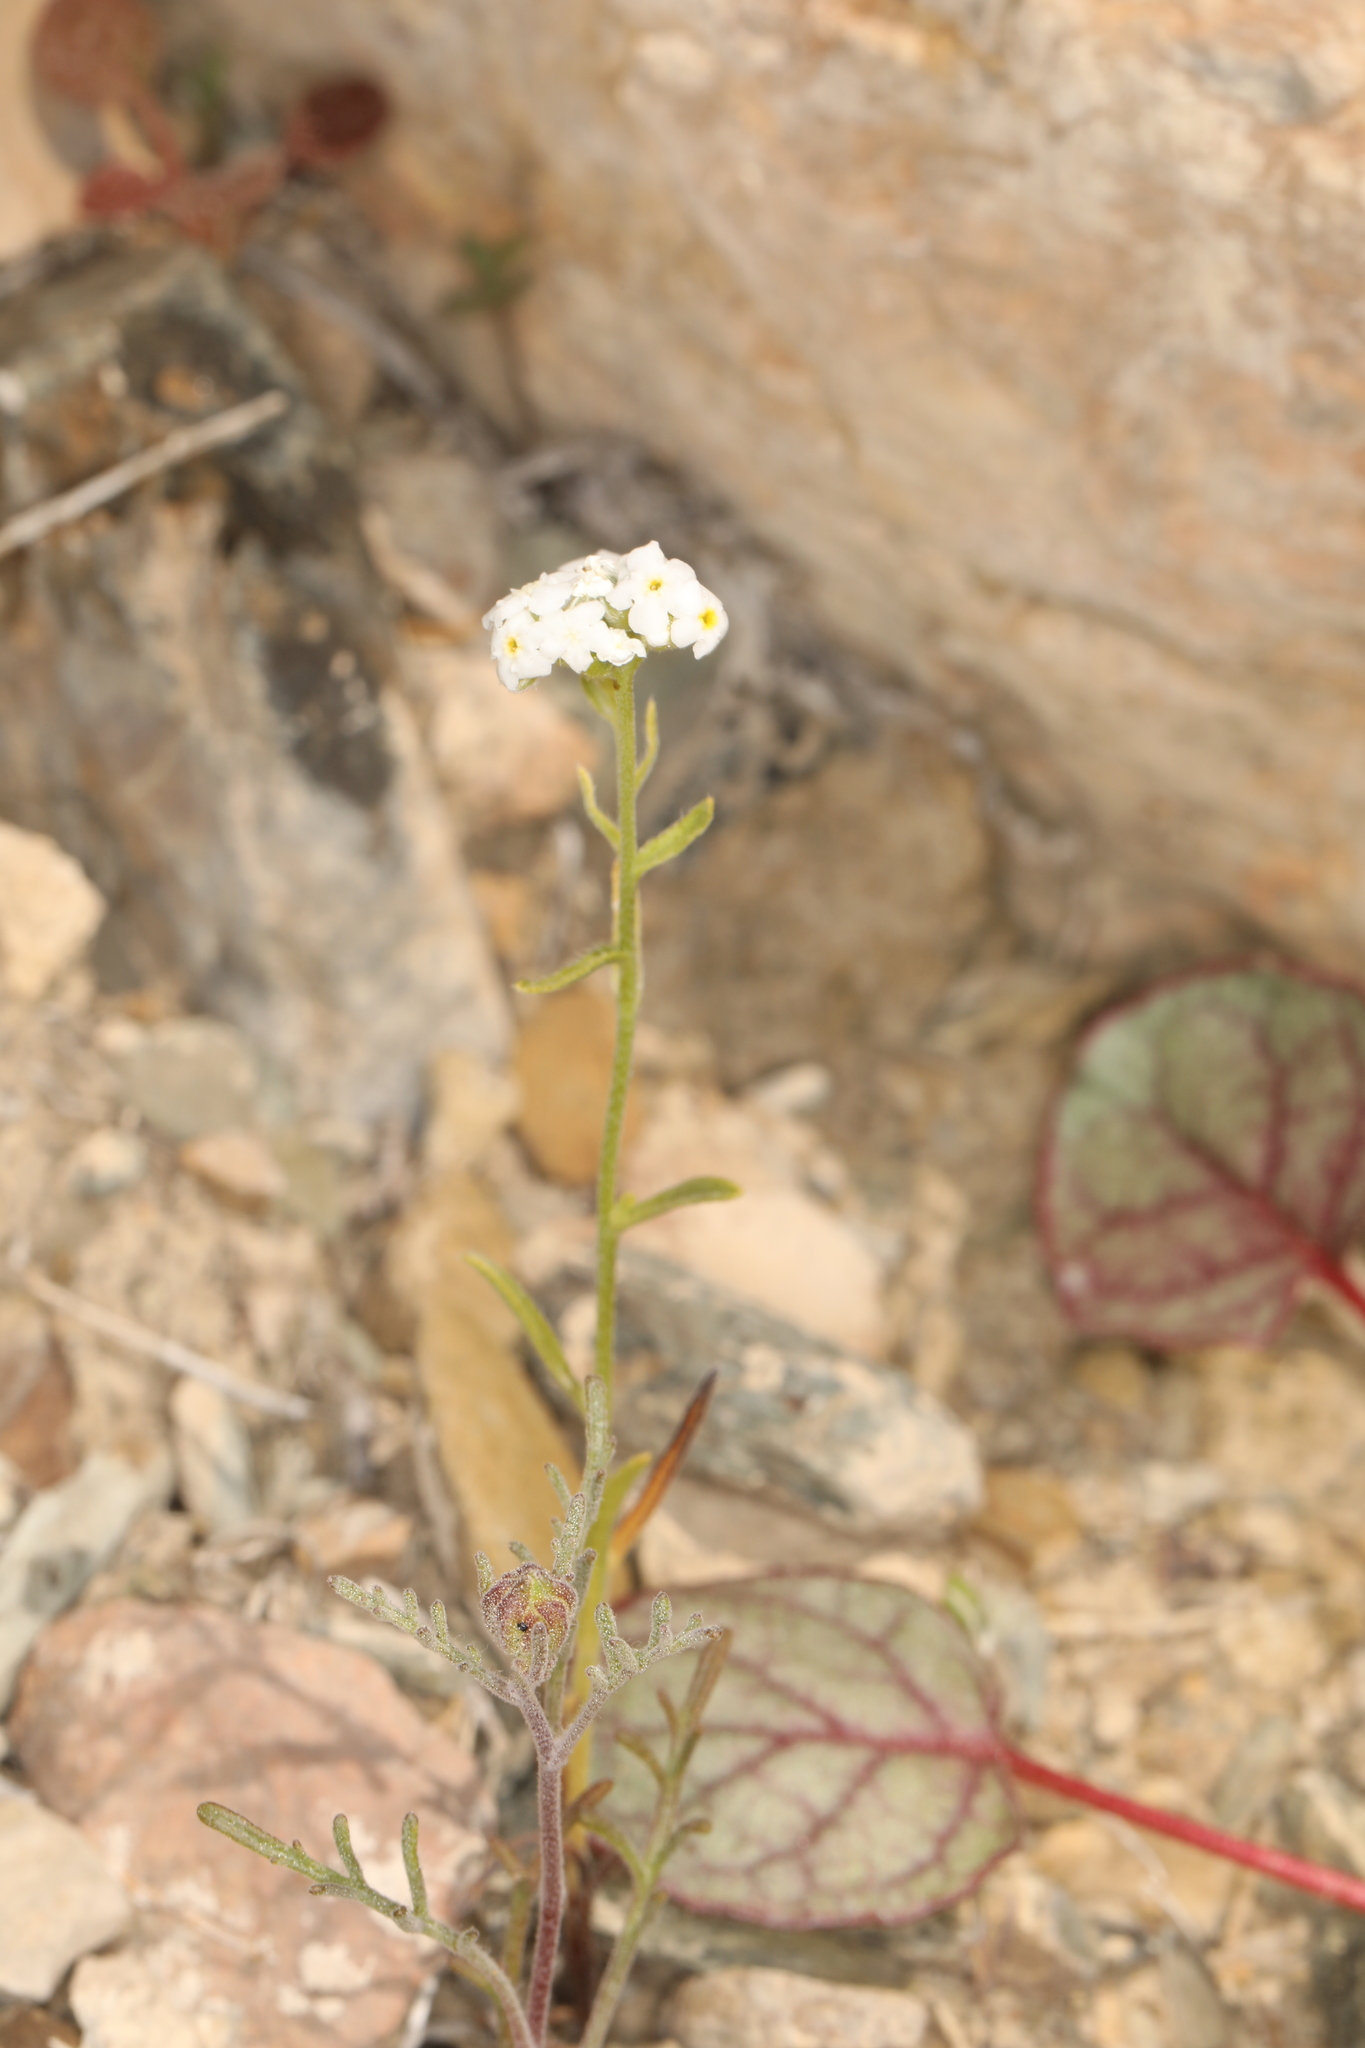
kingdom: Plantae
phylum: Tracheophyta
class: Magnoliopsida
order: Boraginales
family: Boraginaceae
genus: Cryptantha
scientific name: Cryptantha utahensis
